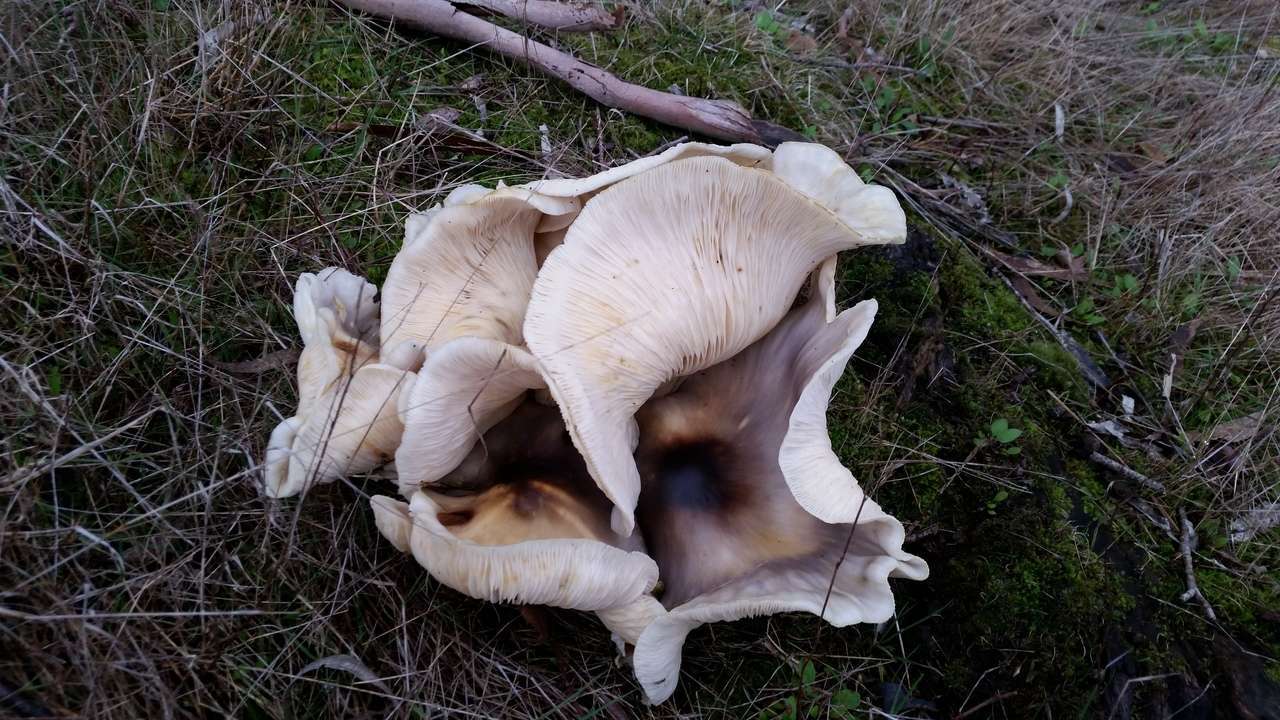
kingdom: Fungi
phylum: Basidiomycota
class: Agaricomycetes
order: Agaricales
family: Omphalotaceae
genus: Omphalotus
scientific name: Omphalotus nidiformis
